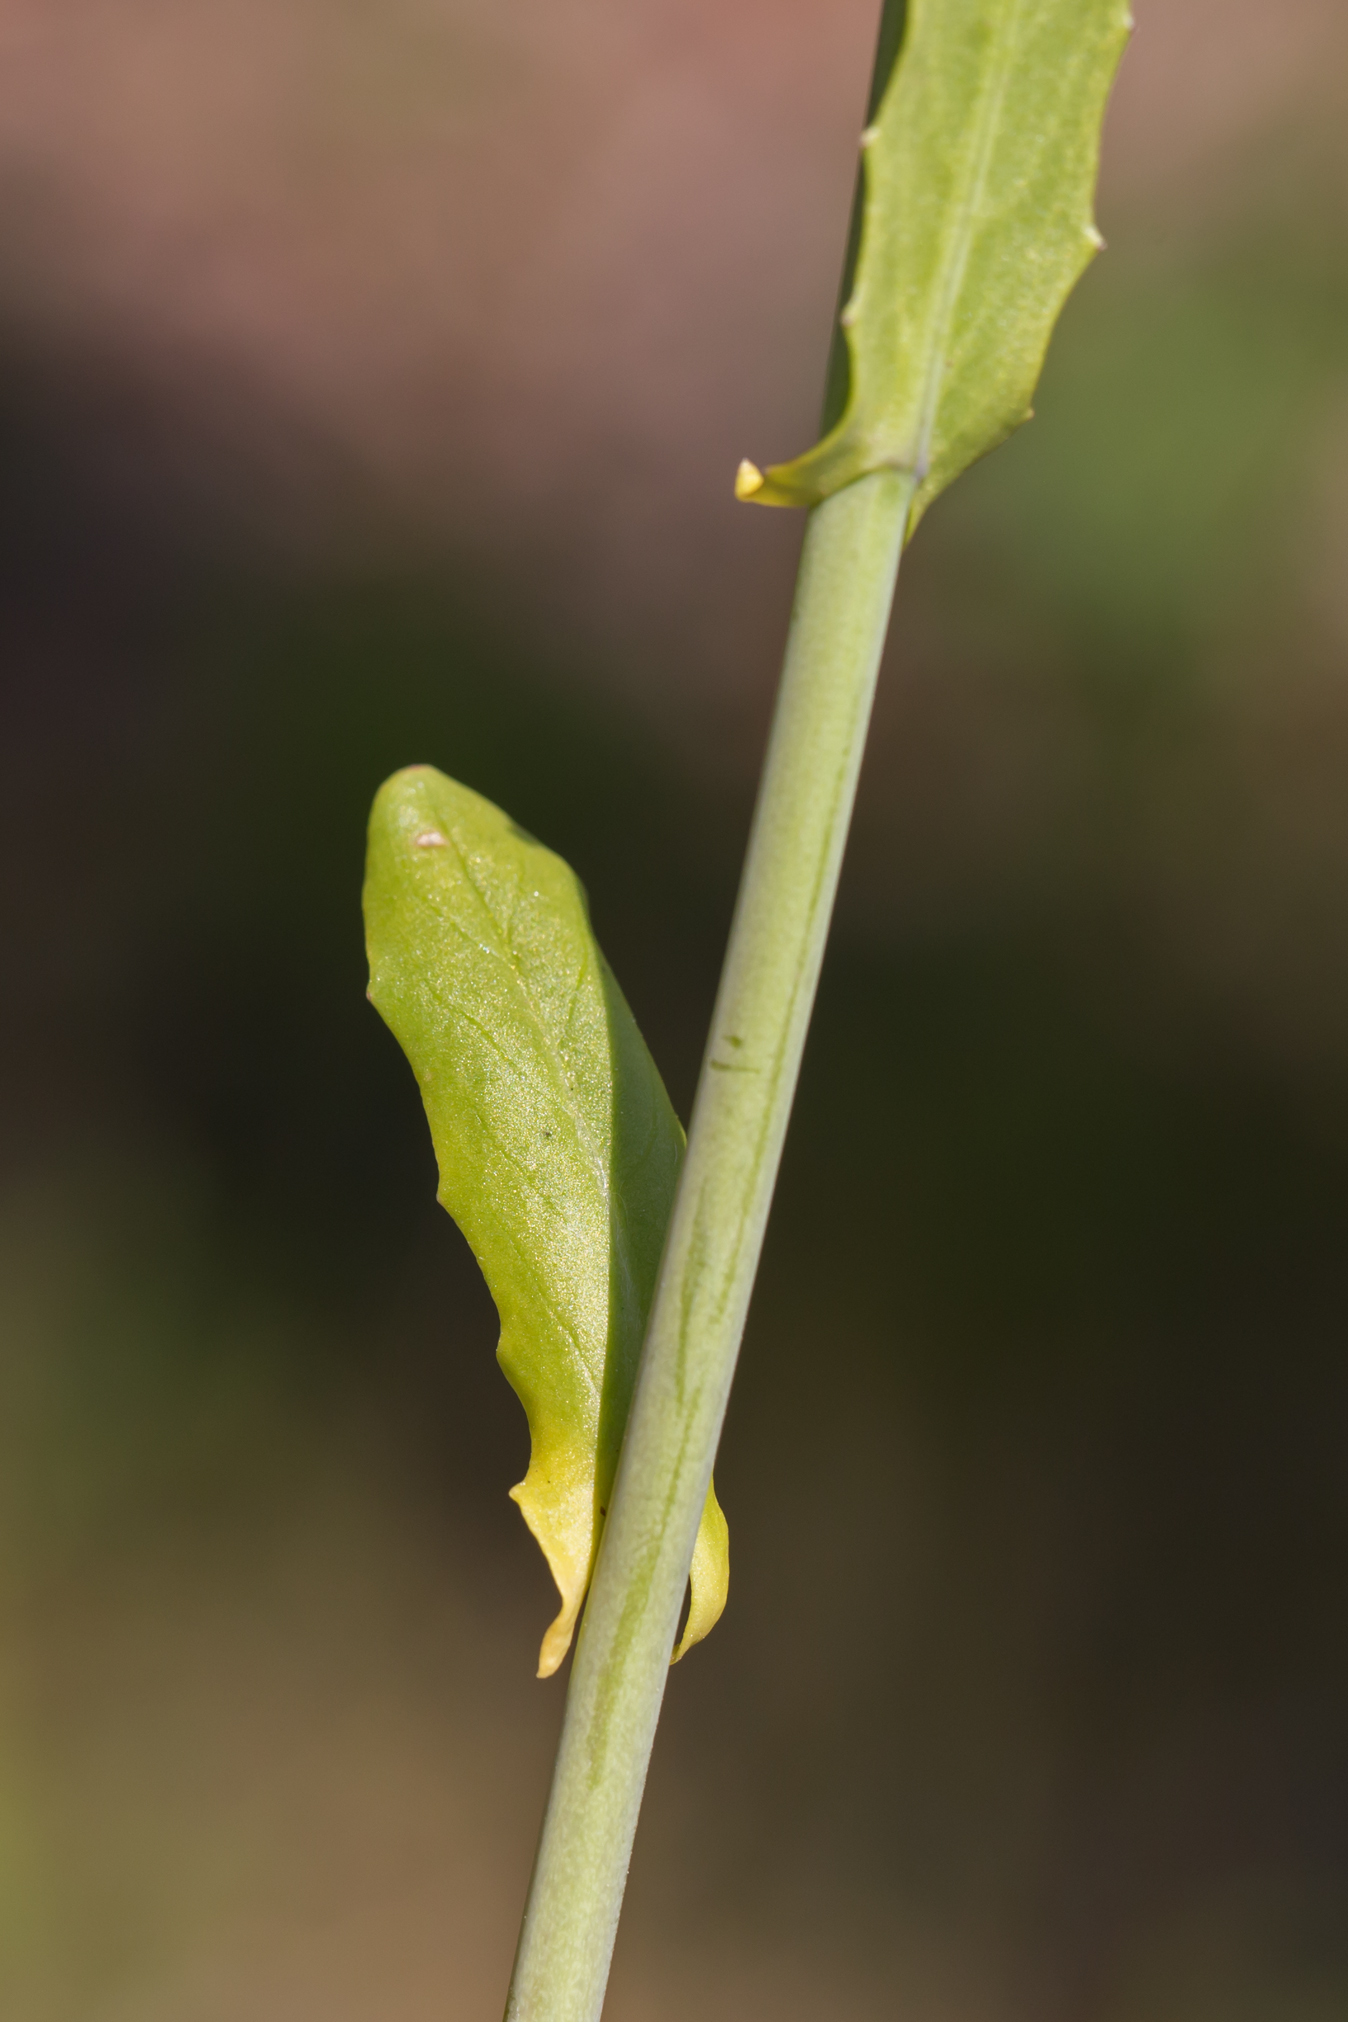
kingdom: Plantae
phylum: Tracheophyta
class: Magnoliopsida
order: Brassicales
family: Brassicaceae
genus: Mummenhoffia
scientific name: Mummenhoffia alliacea
